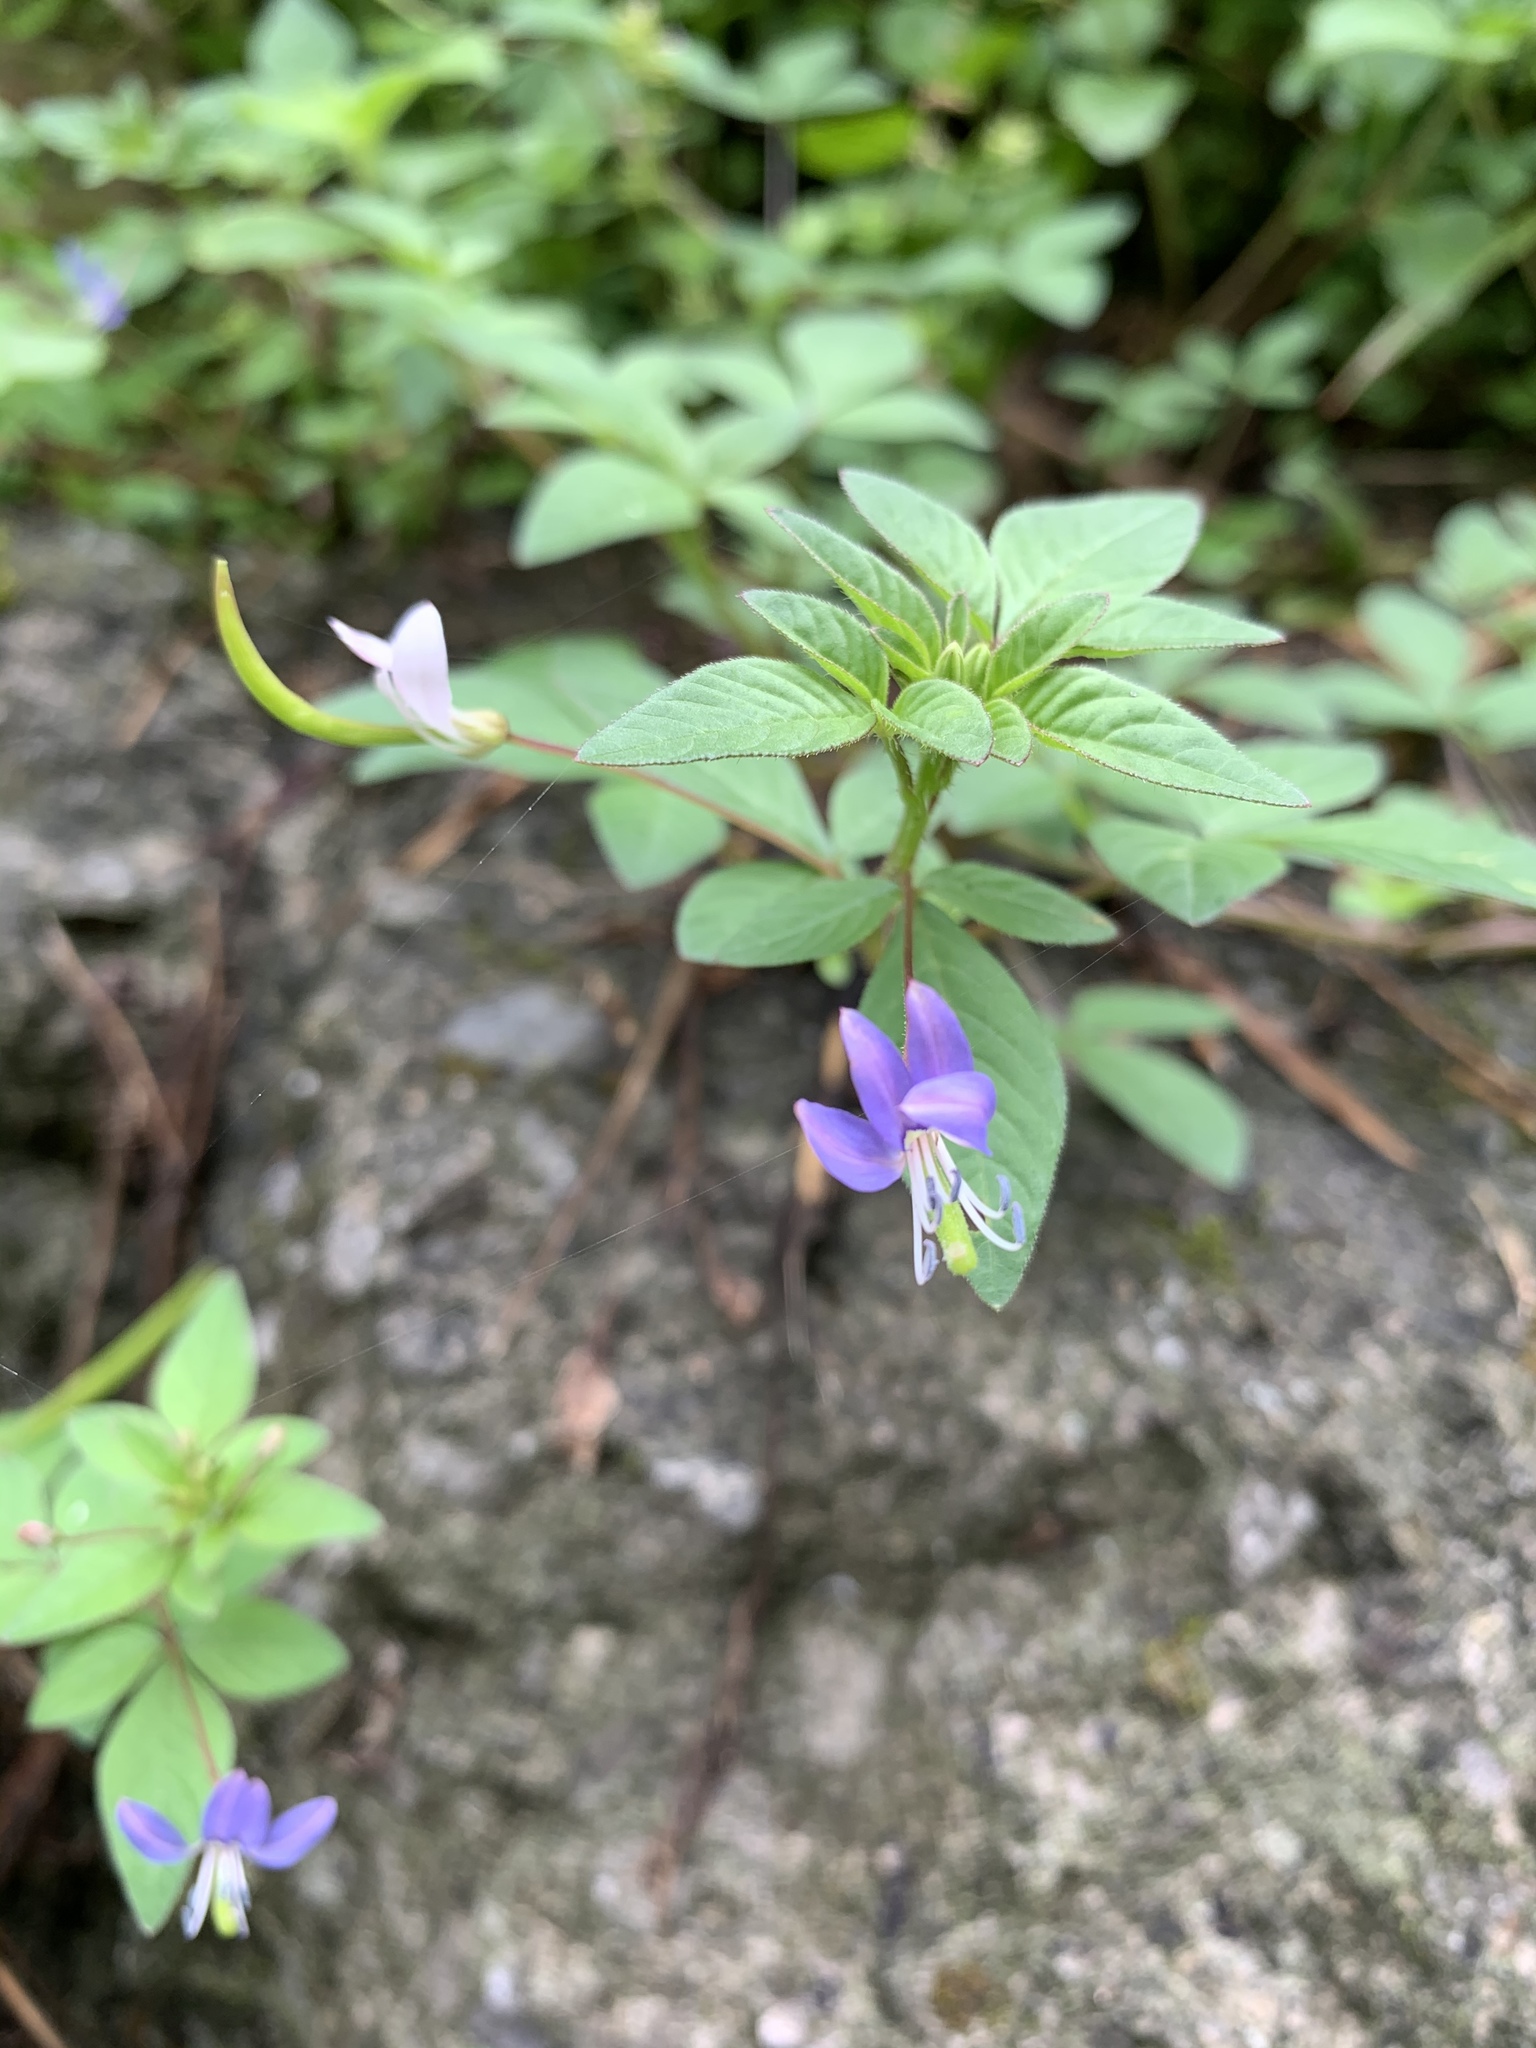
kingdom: Plantae
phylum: Tracheophyta
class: Magnoliopsida
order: Brassicales
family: Cleomaceae
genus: Sieruela
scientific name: Sieruela rutidosperma
